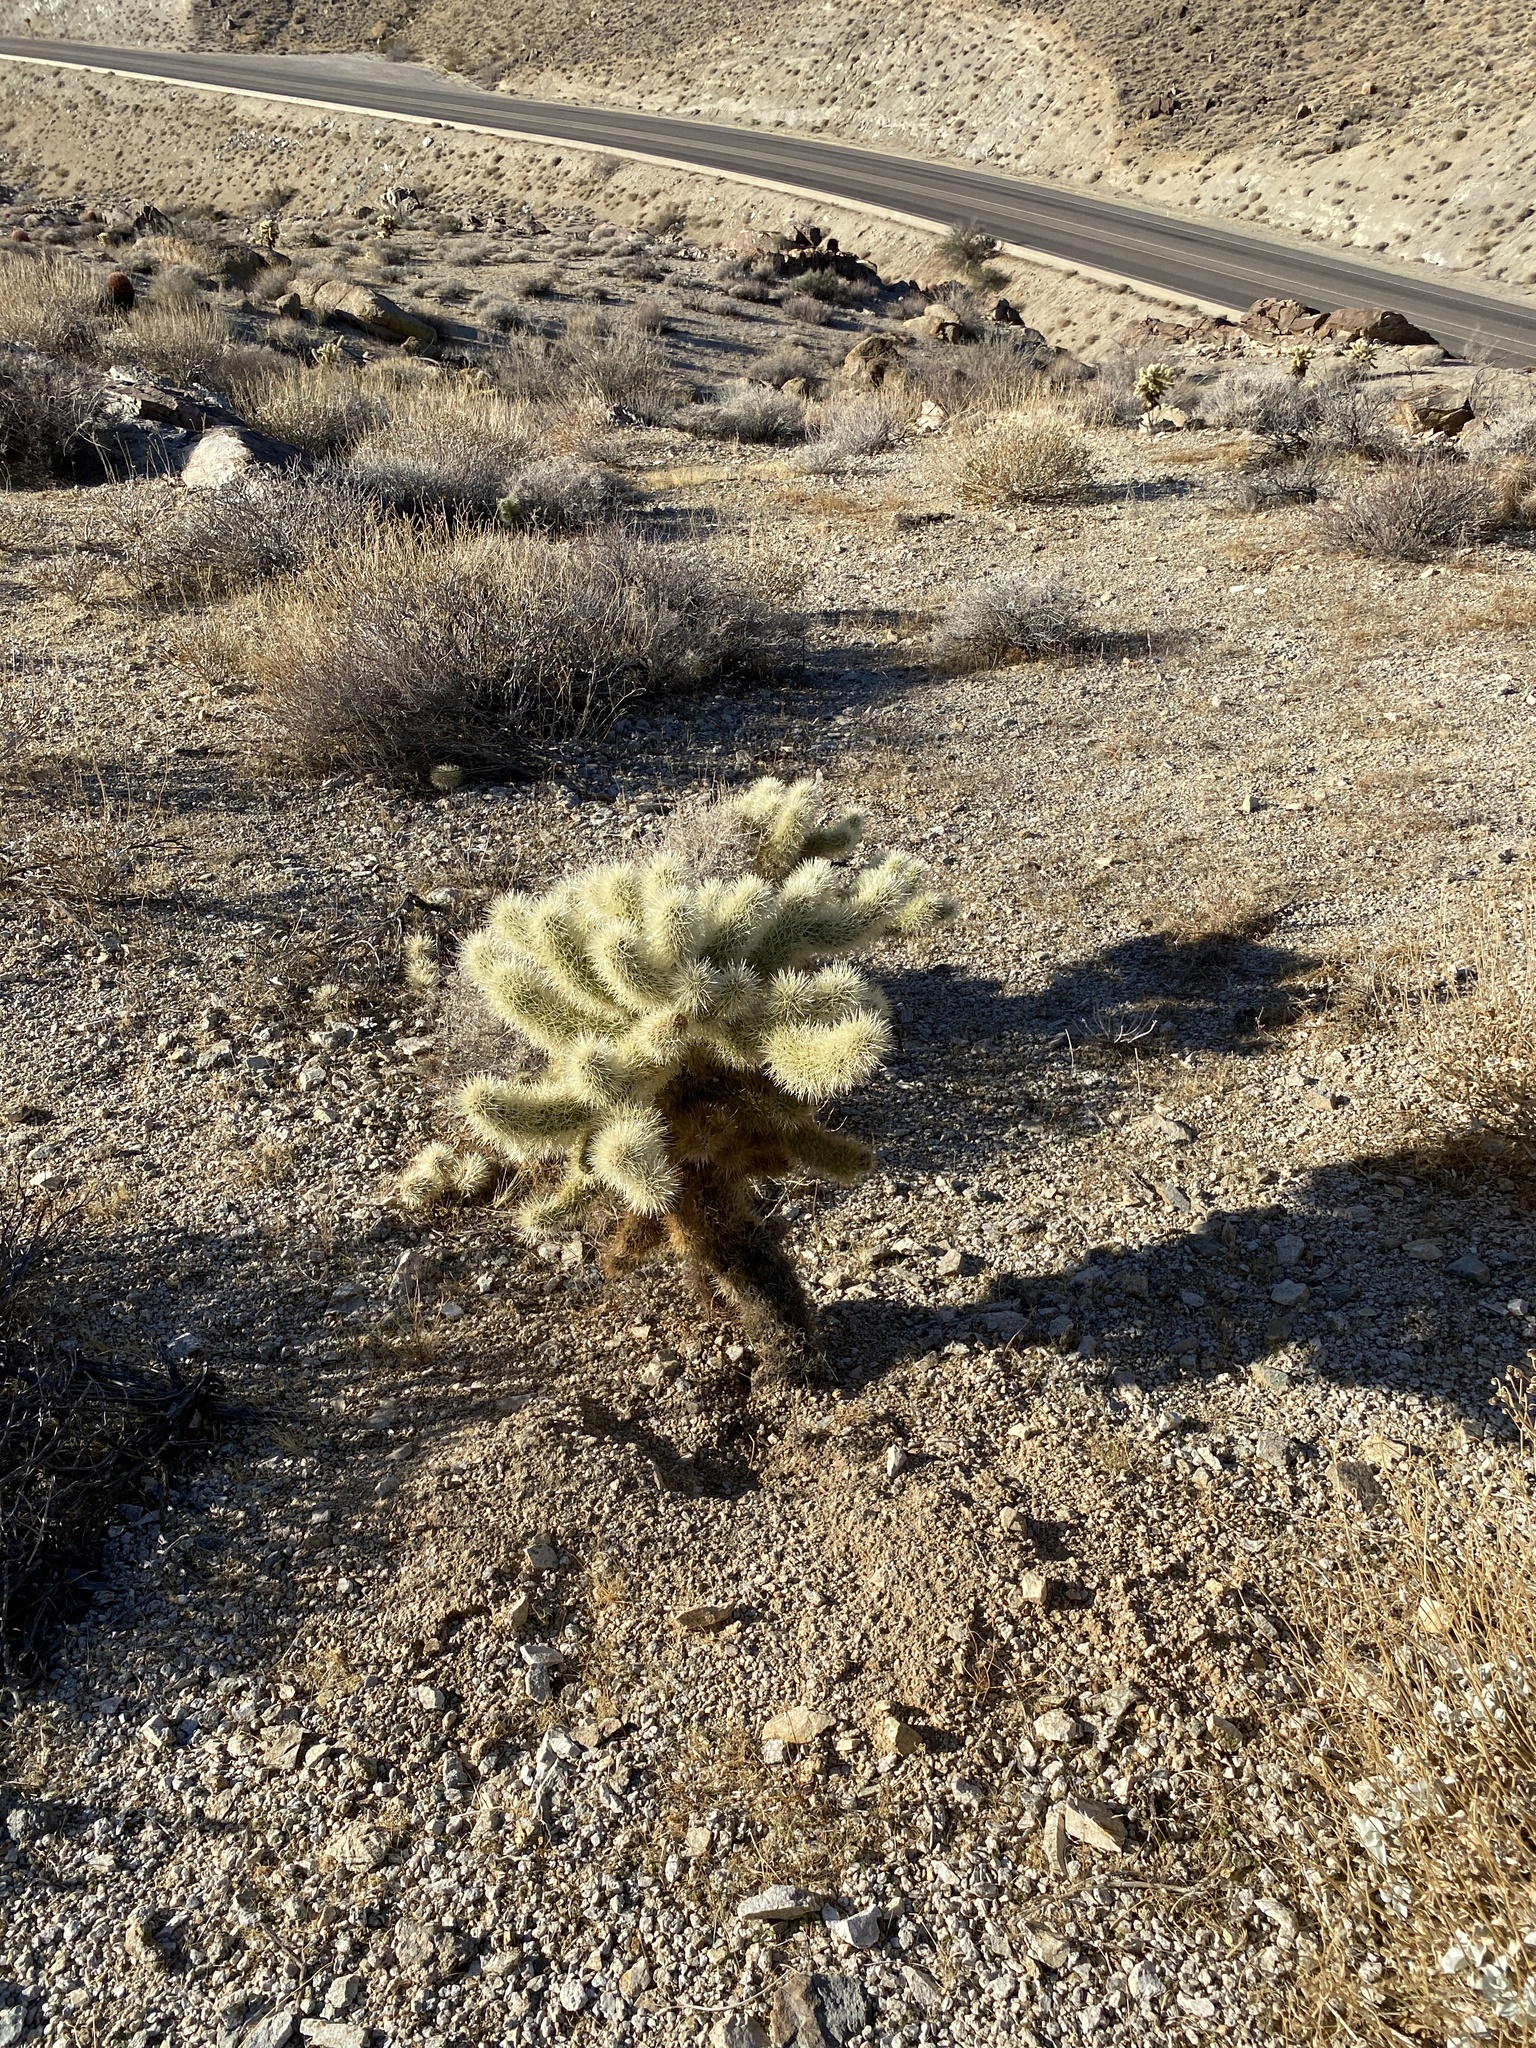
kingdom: Plantae
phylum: Tracheophyta
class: Magnoliopsida
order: Caryophyllales
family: Cactaceae
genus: Cylindropuntia
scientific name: Cylindropuntia fosbergii
